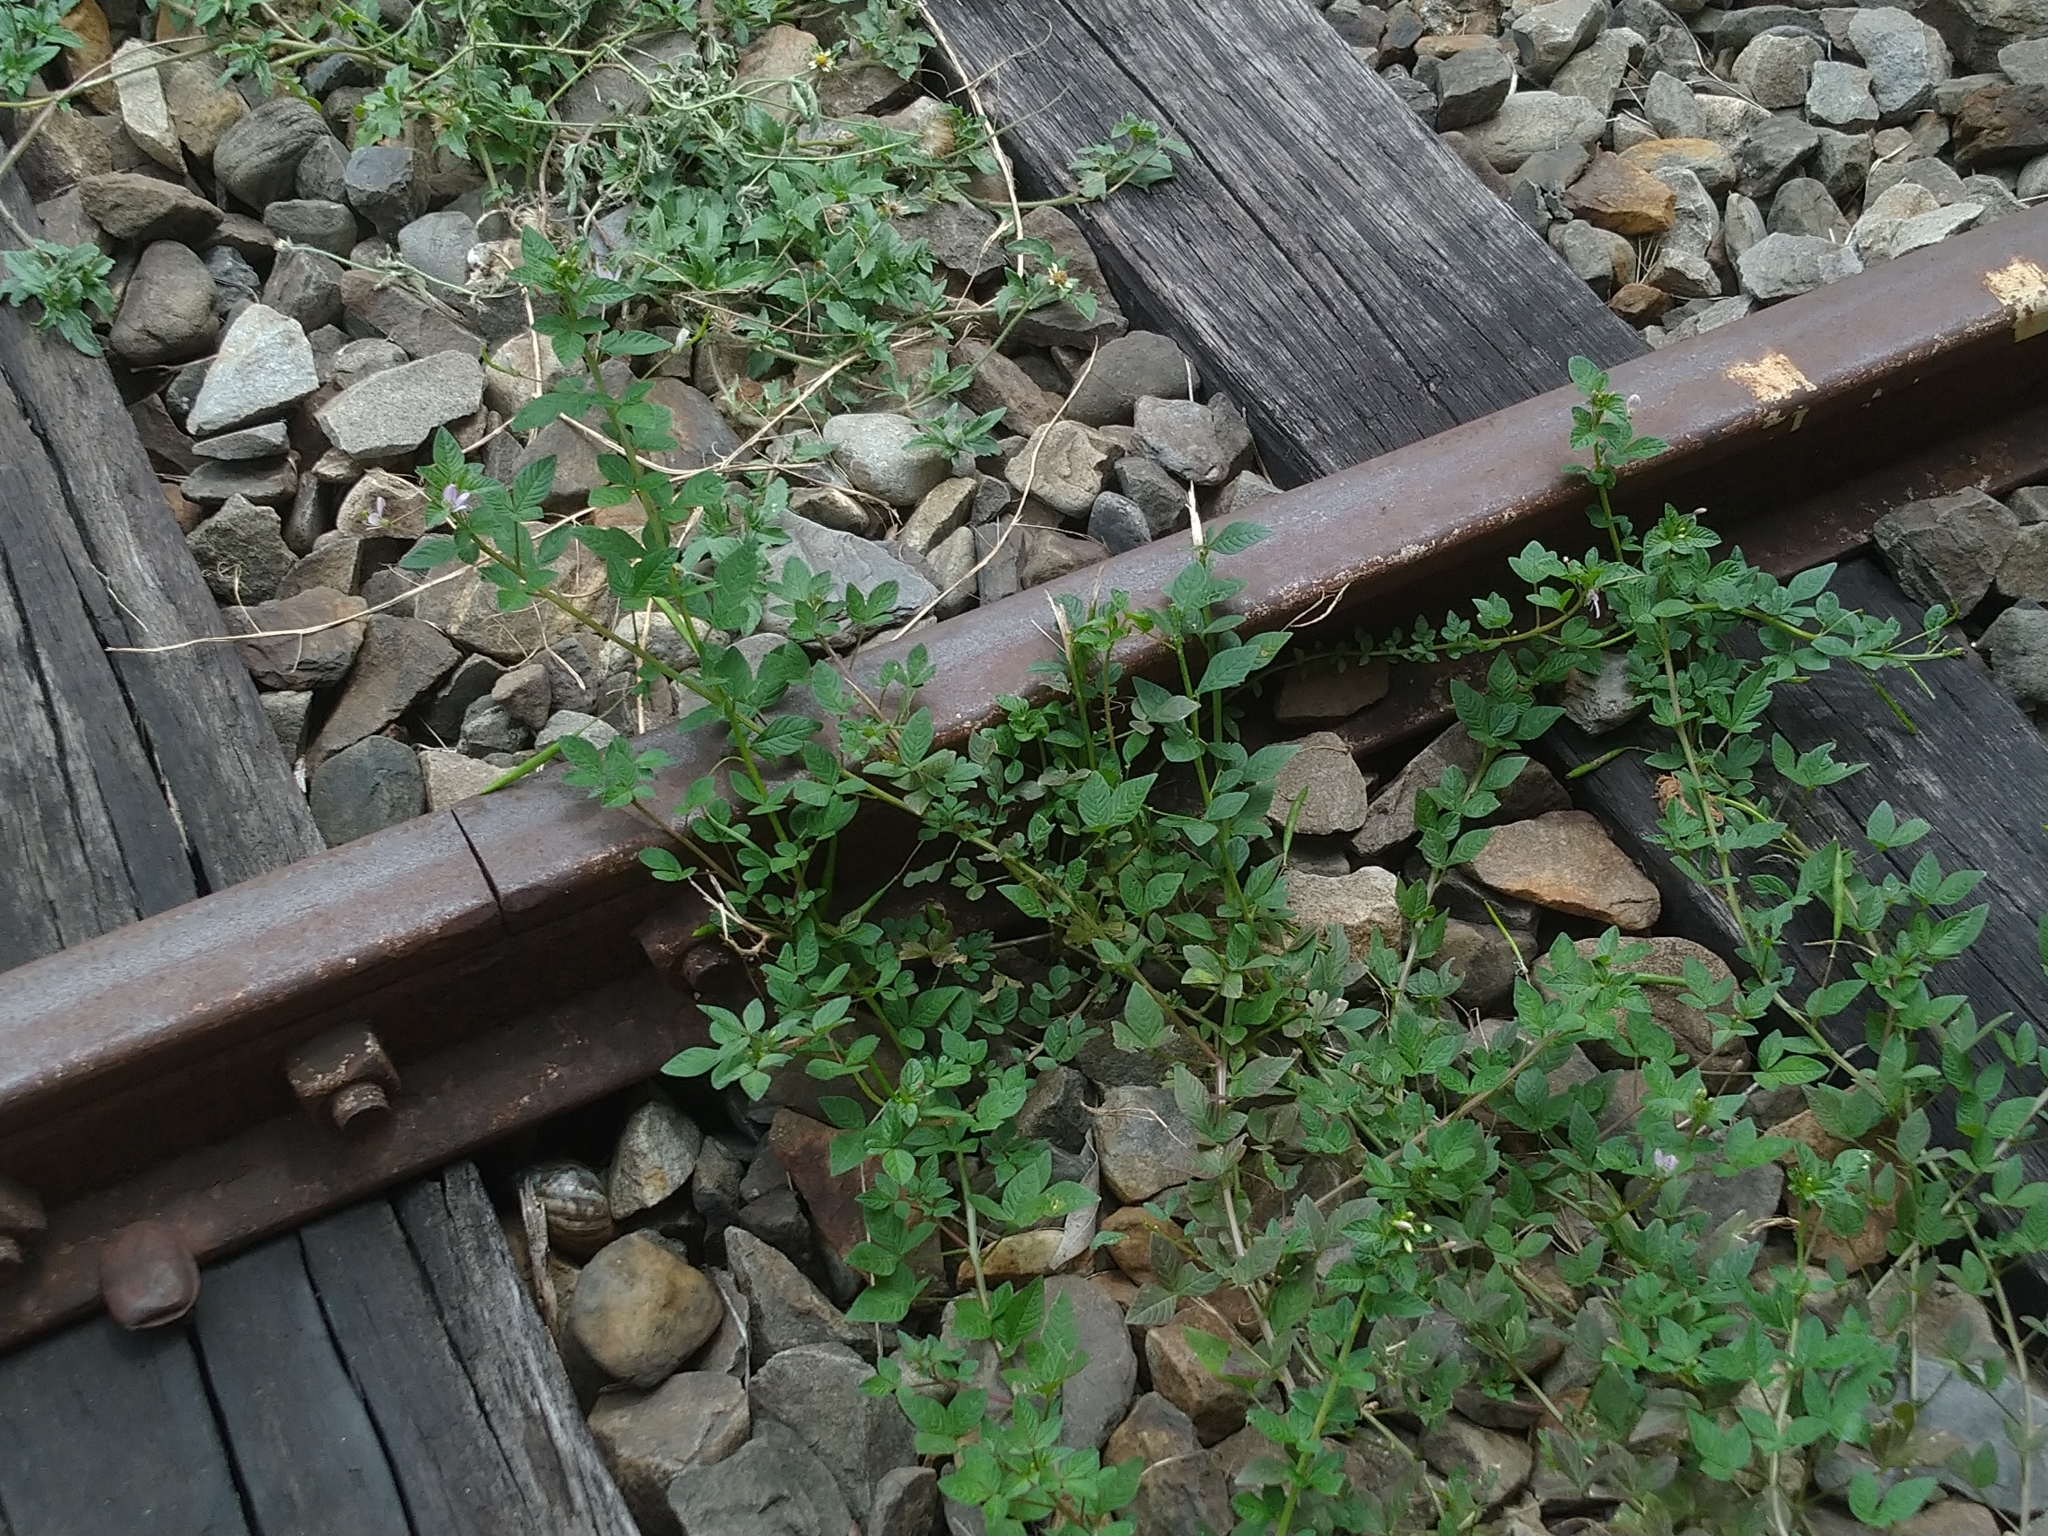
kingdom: Plantae
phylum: Tracheophyta
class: Magnoliopsida
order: Brassicales
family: Cleomaceae
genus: Sieruela
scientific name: Sieruela rutidosperma
